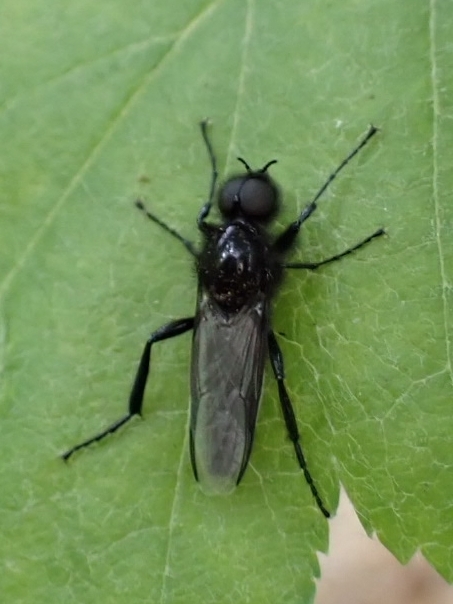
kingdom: Animalia
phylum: Arthropoda
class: Insecta
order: Diptera
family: Bibionidae
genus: Bibio
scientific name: Bibio marci
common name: St marks fly
